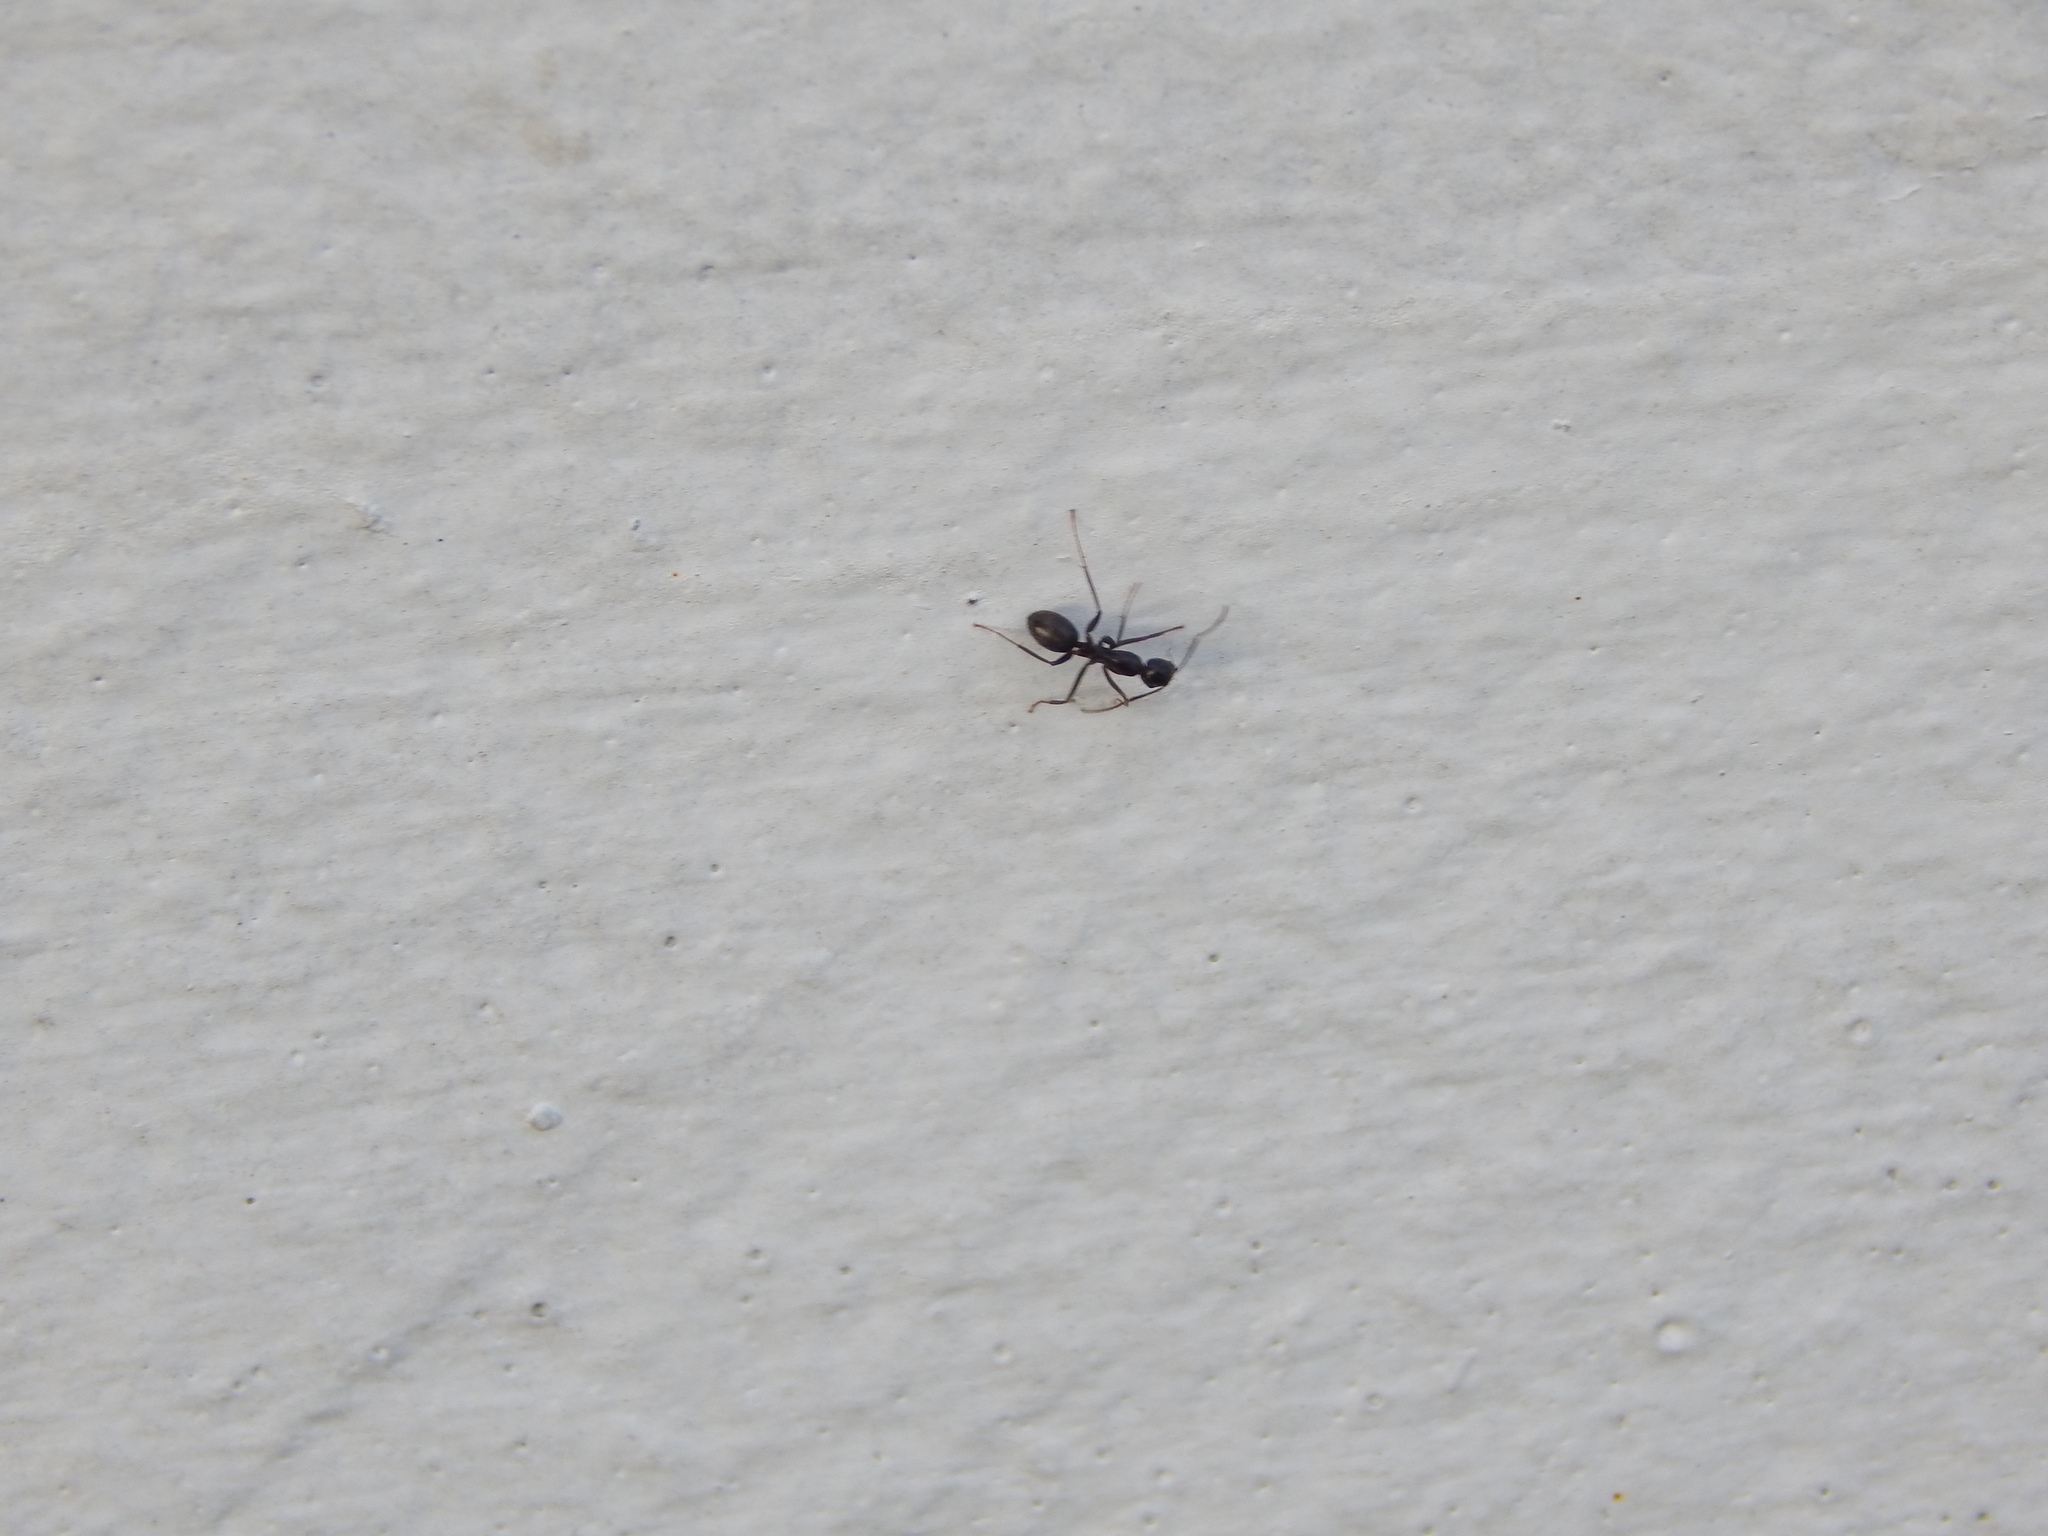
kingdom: Animalia
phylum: Arthropoda
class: Insecta
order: Hymenoptera
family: Formicidae
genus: Camponotus
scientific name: Camponotus pennsylvanicus
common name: Black carpenter ant
